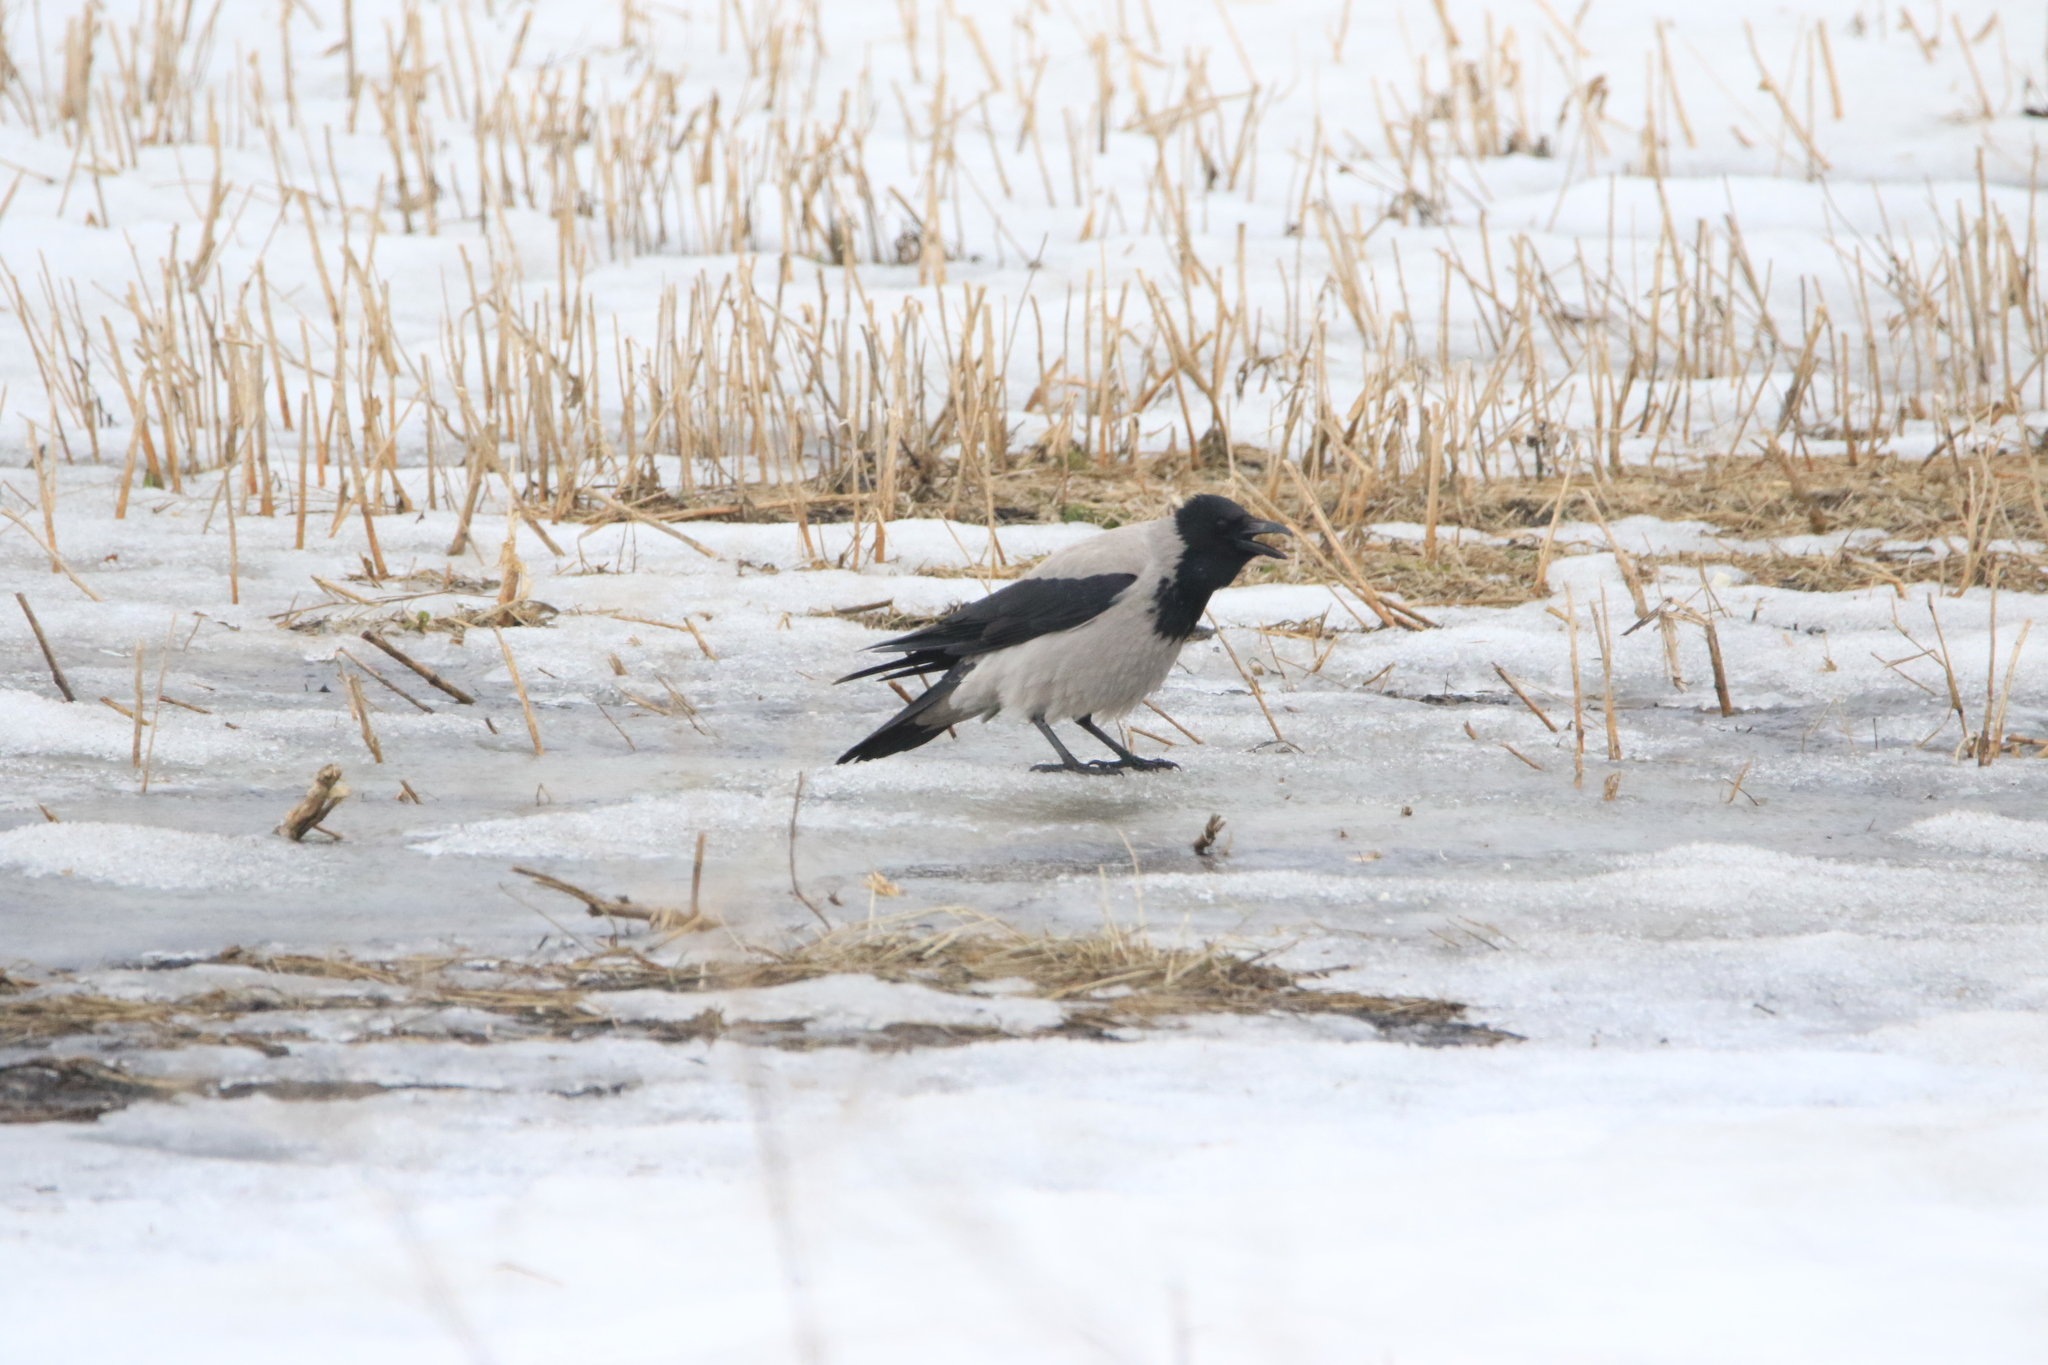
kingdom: Animalia
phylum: Chordata
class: Aves
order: Passeriformes
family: Corvidae
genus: Corvus
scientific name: Corvus cornix
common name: Hooded crow
